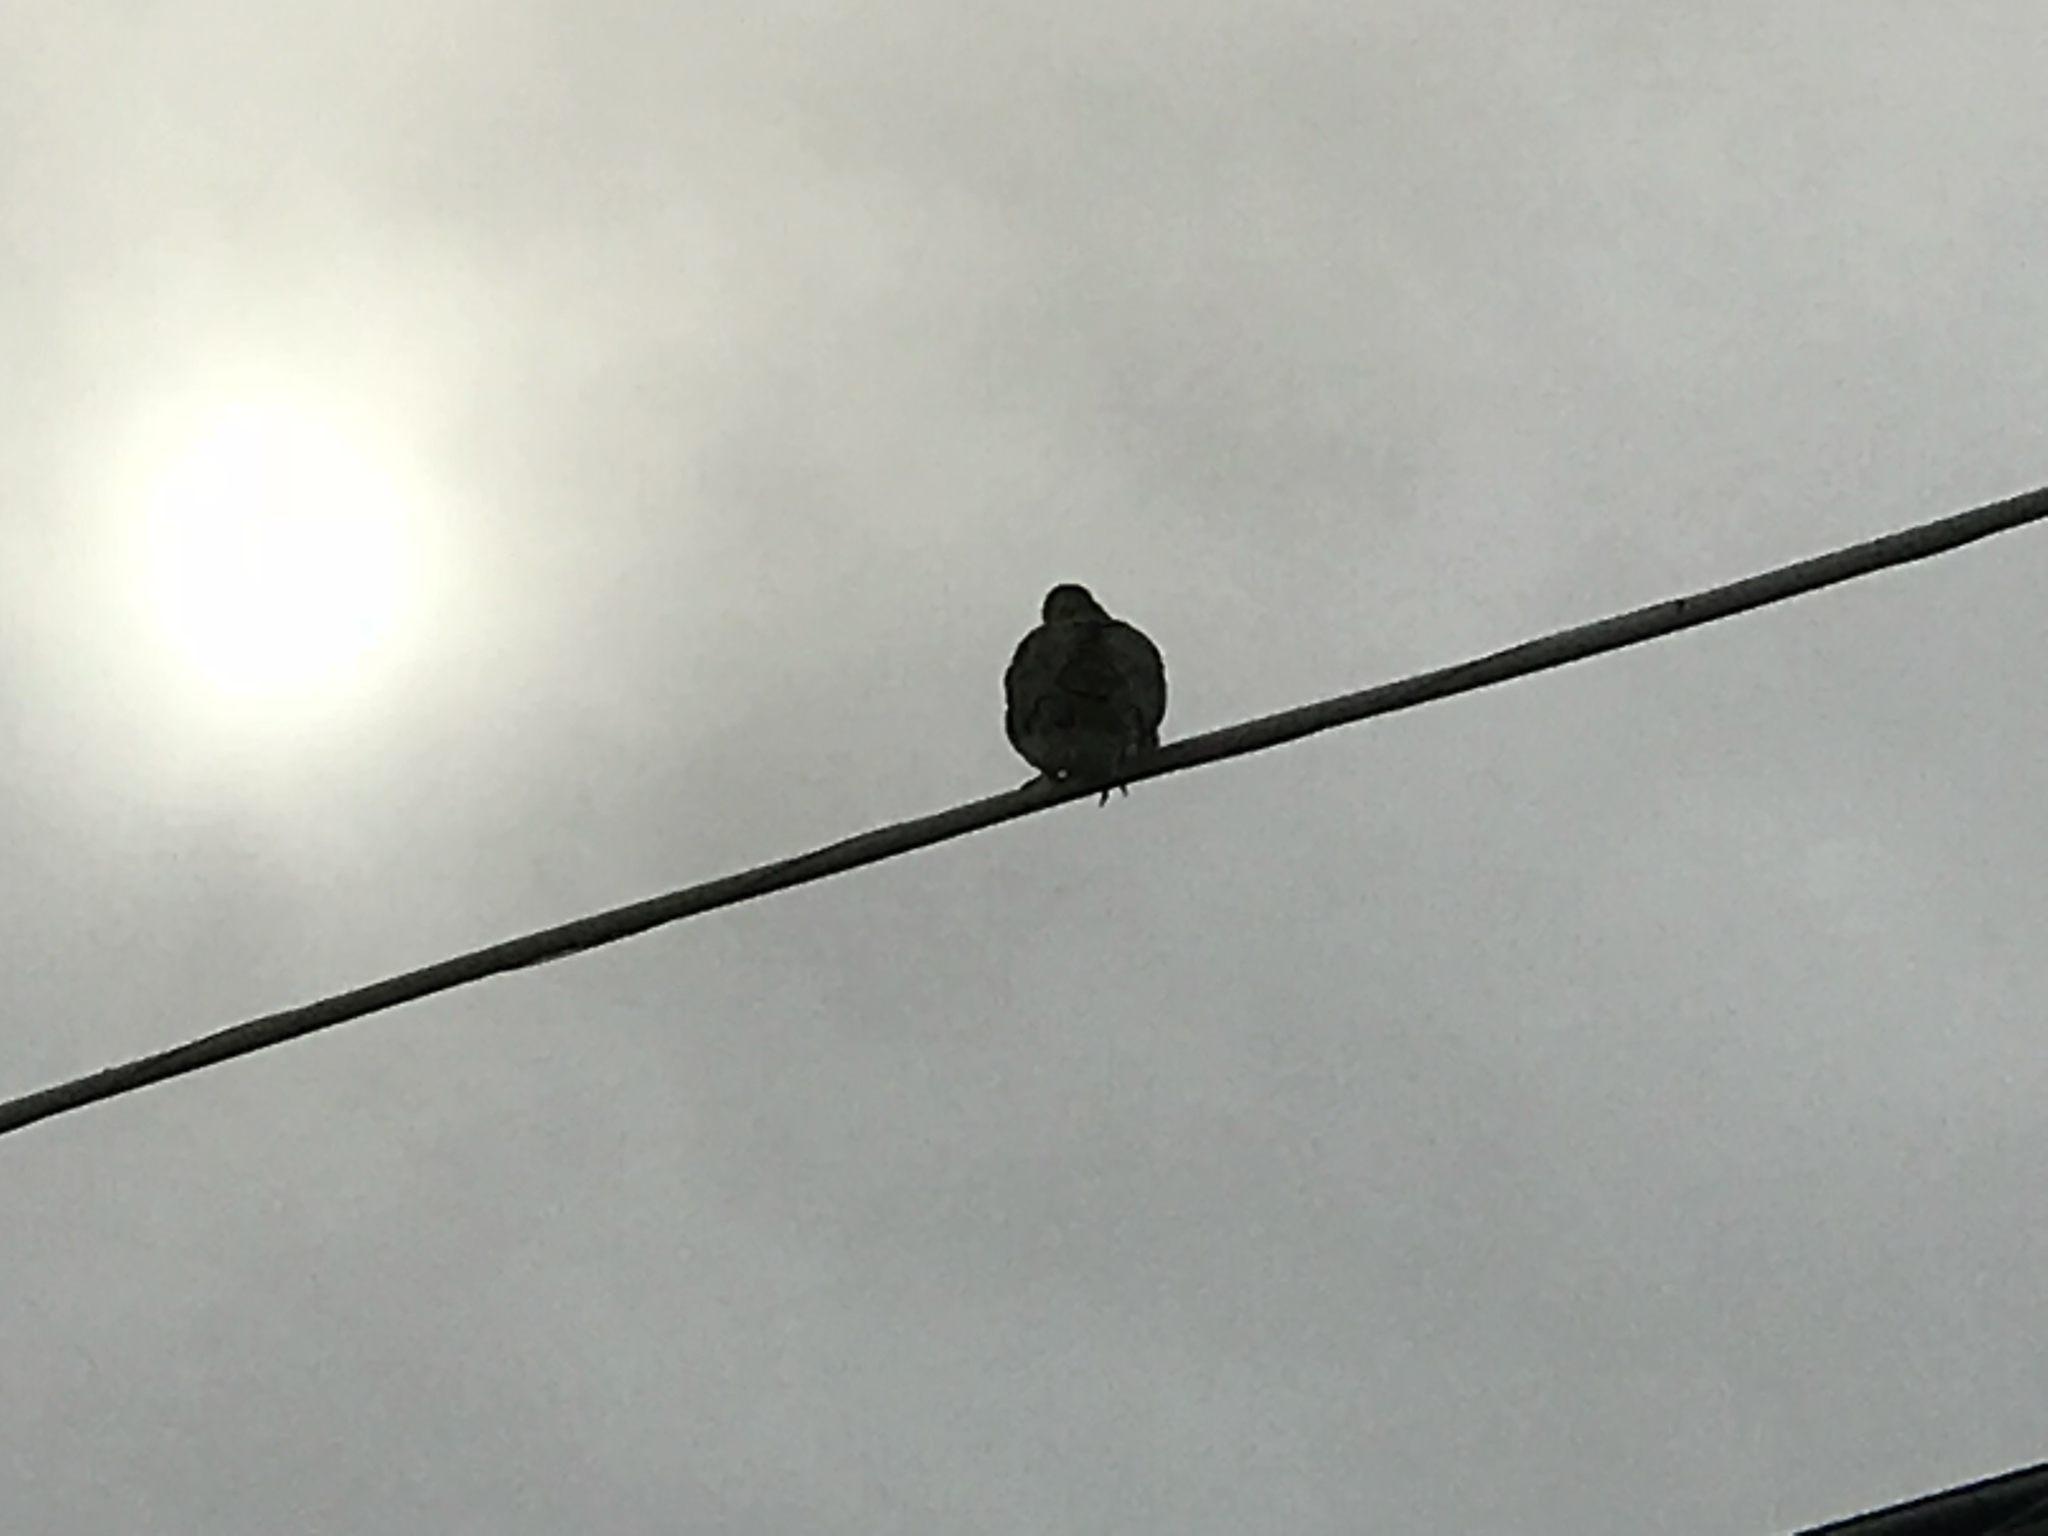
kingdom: Animalia
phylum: Chordata
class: Aves
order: Columbiformes
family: Columbidae
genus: Zenaida
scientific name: Zenaida macroura
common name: Mourning dove
